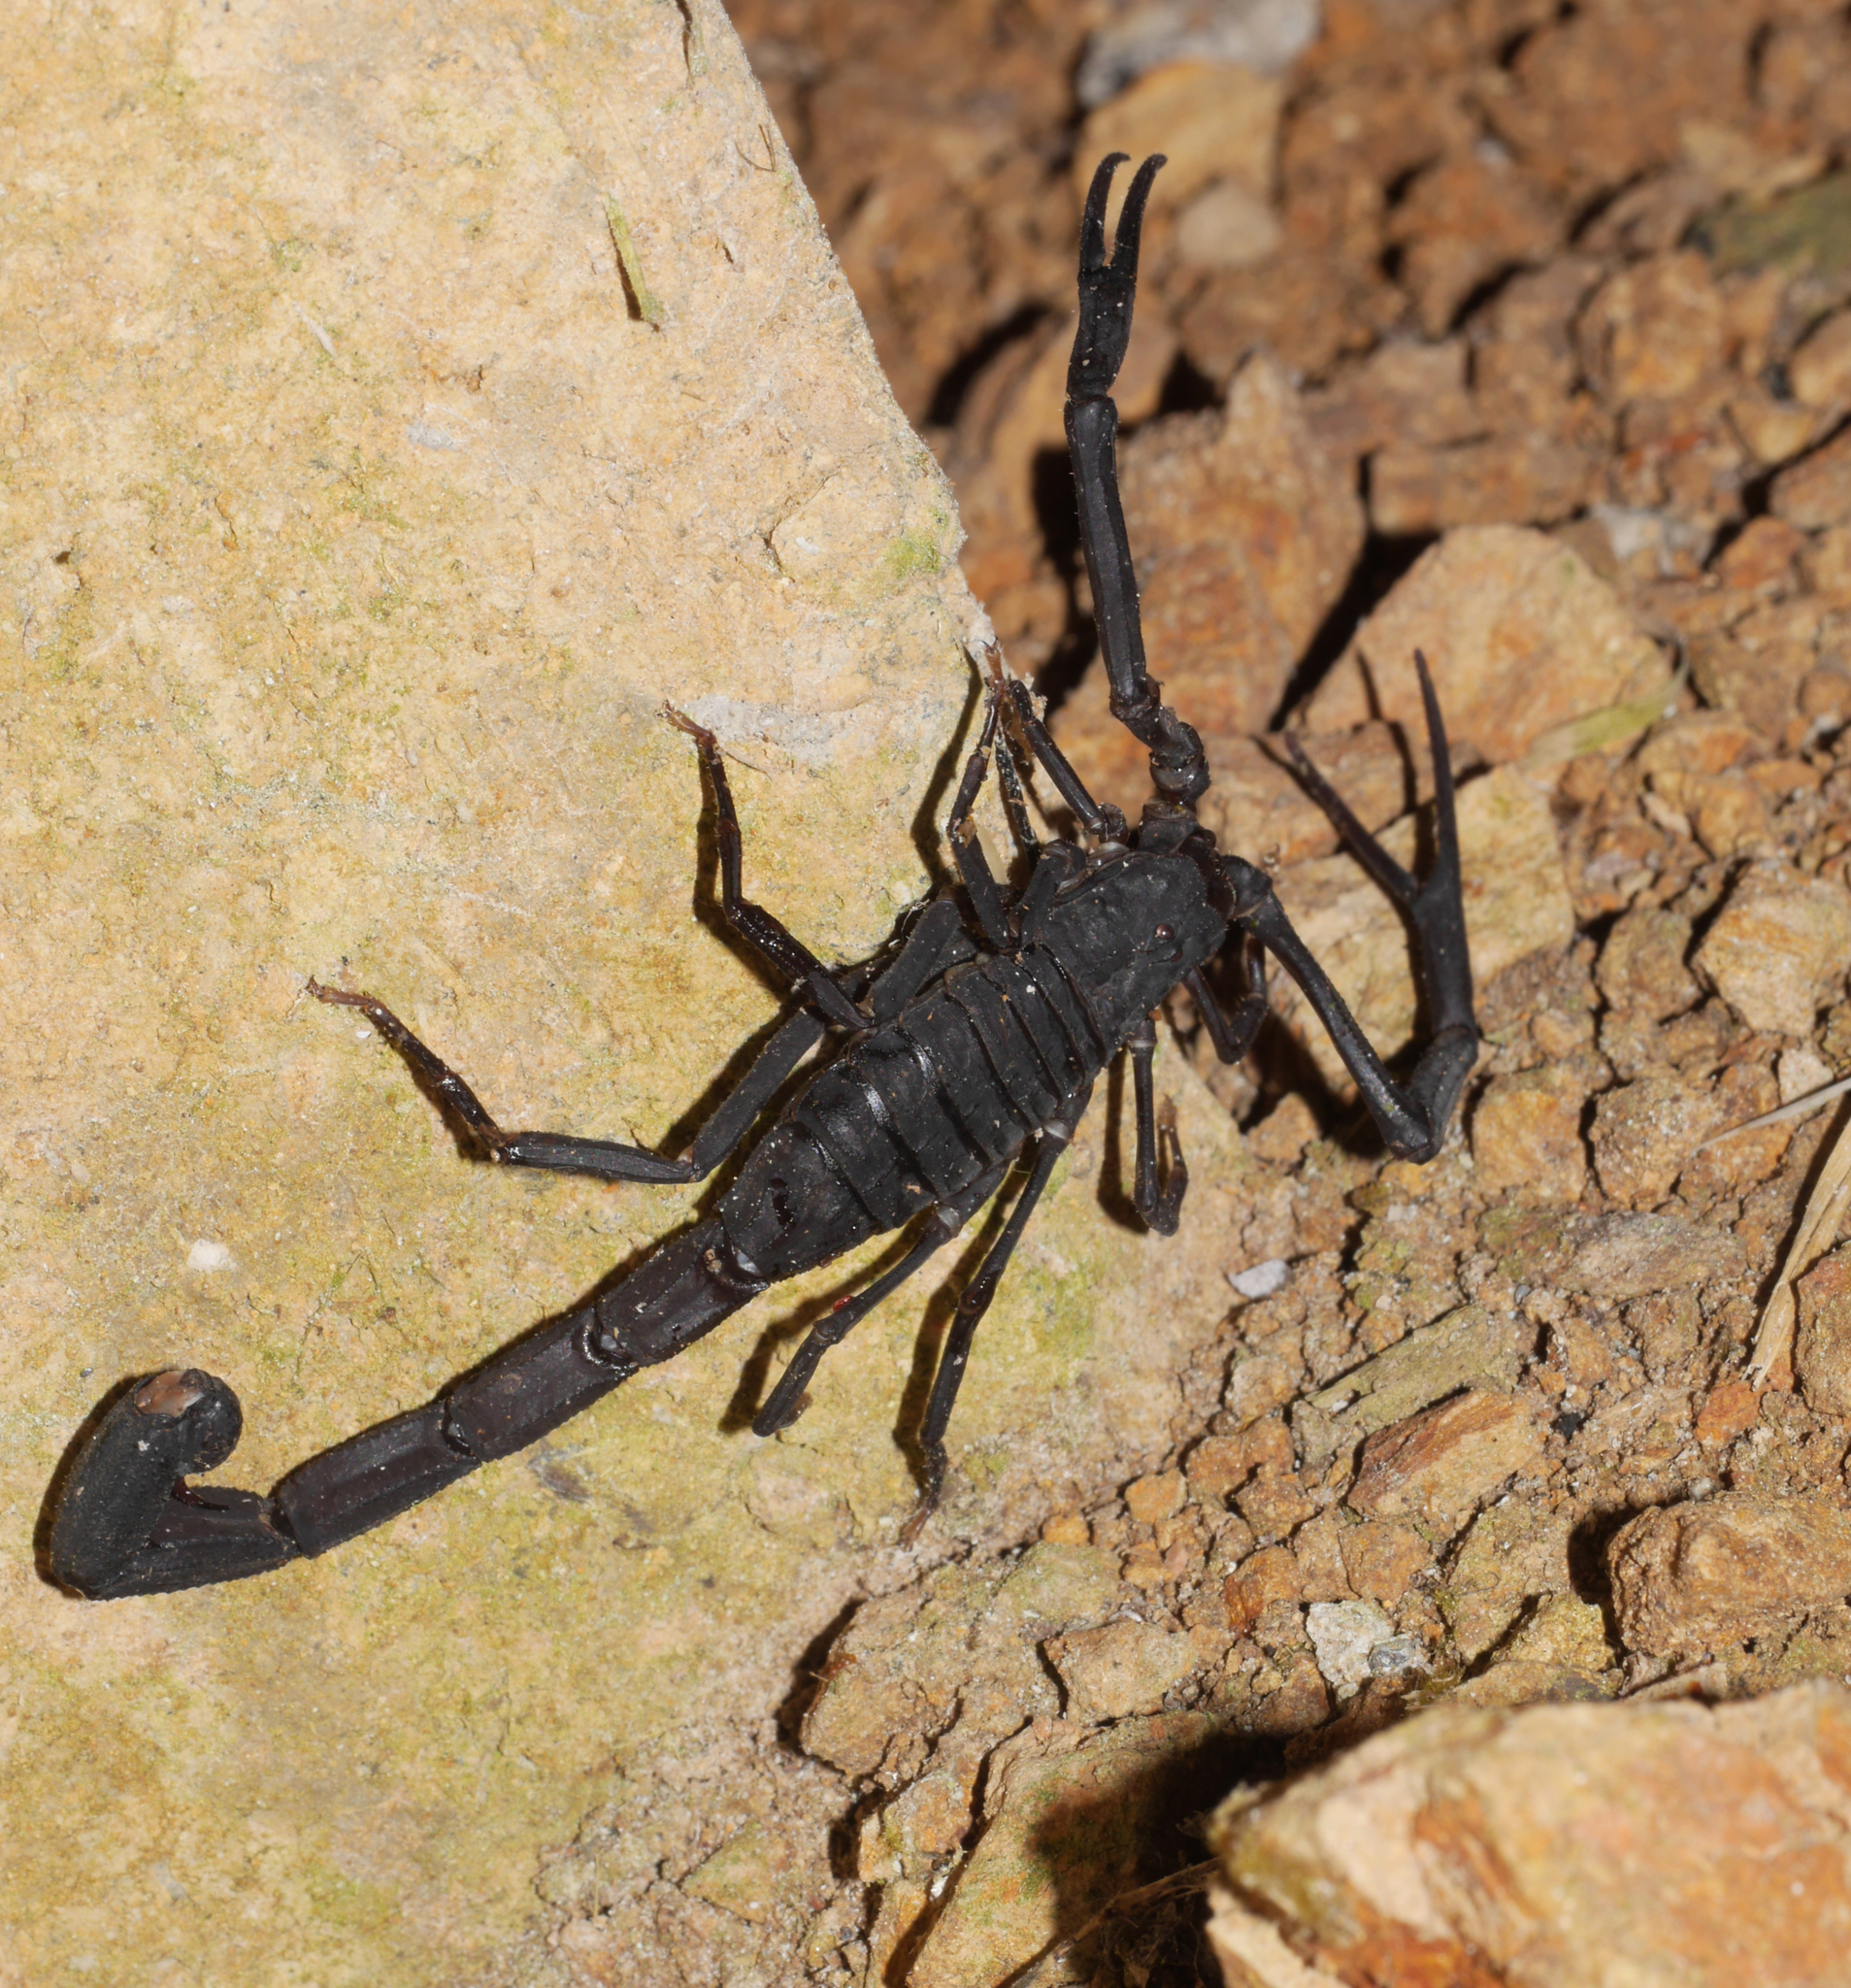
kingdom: Animalia
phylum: Arthropoda
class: Arachnida
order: Scorpiones
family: Buthidae
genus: Tityus
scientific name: Tityus asthenes
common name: Scorpions
